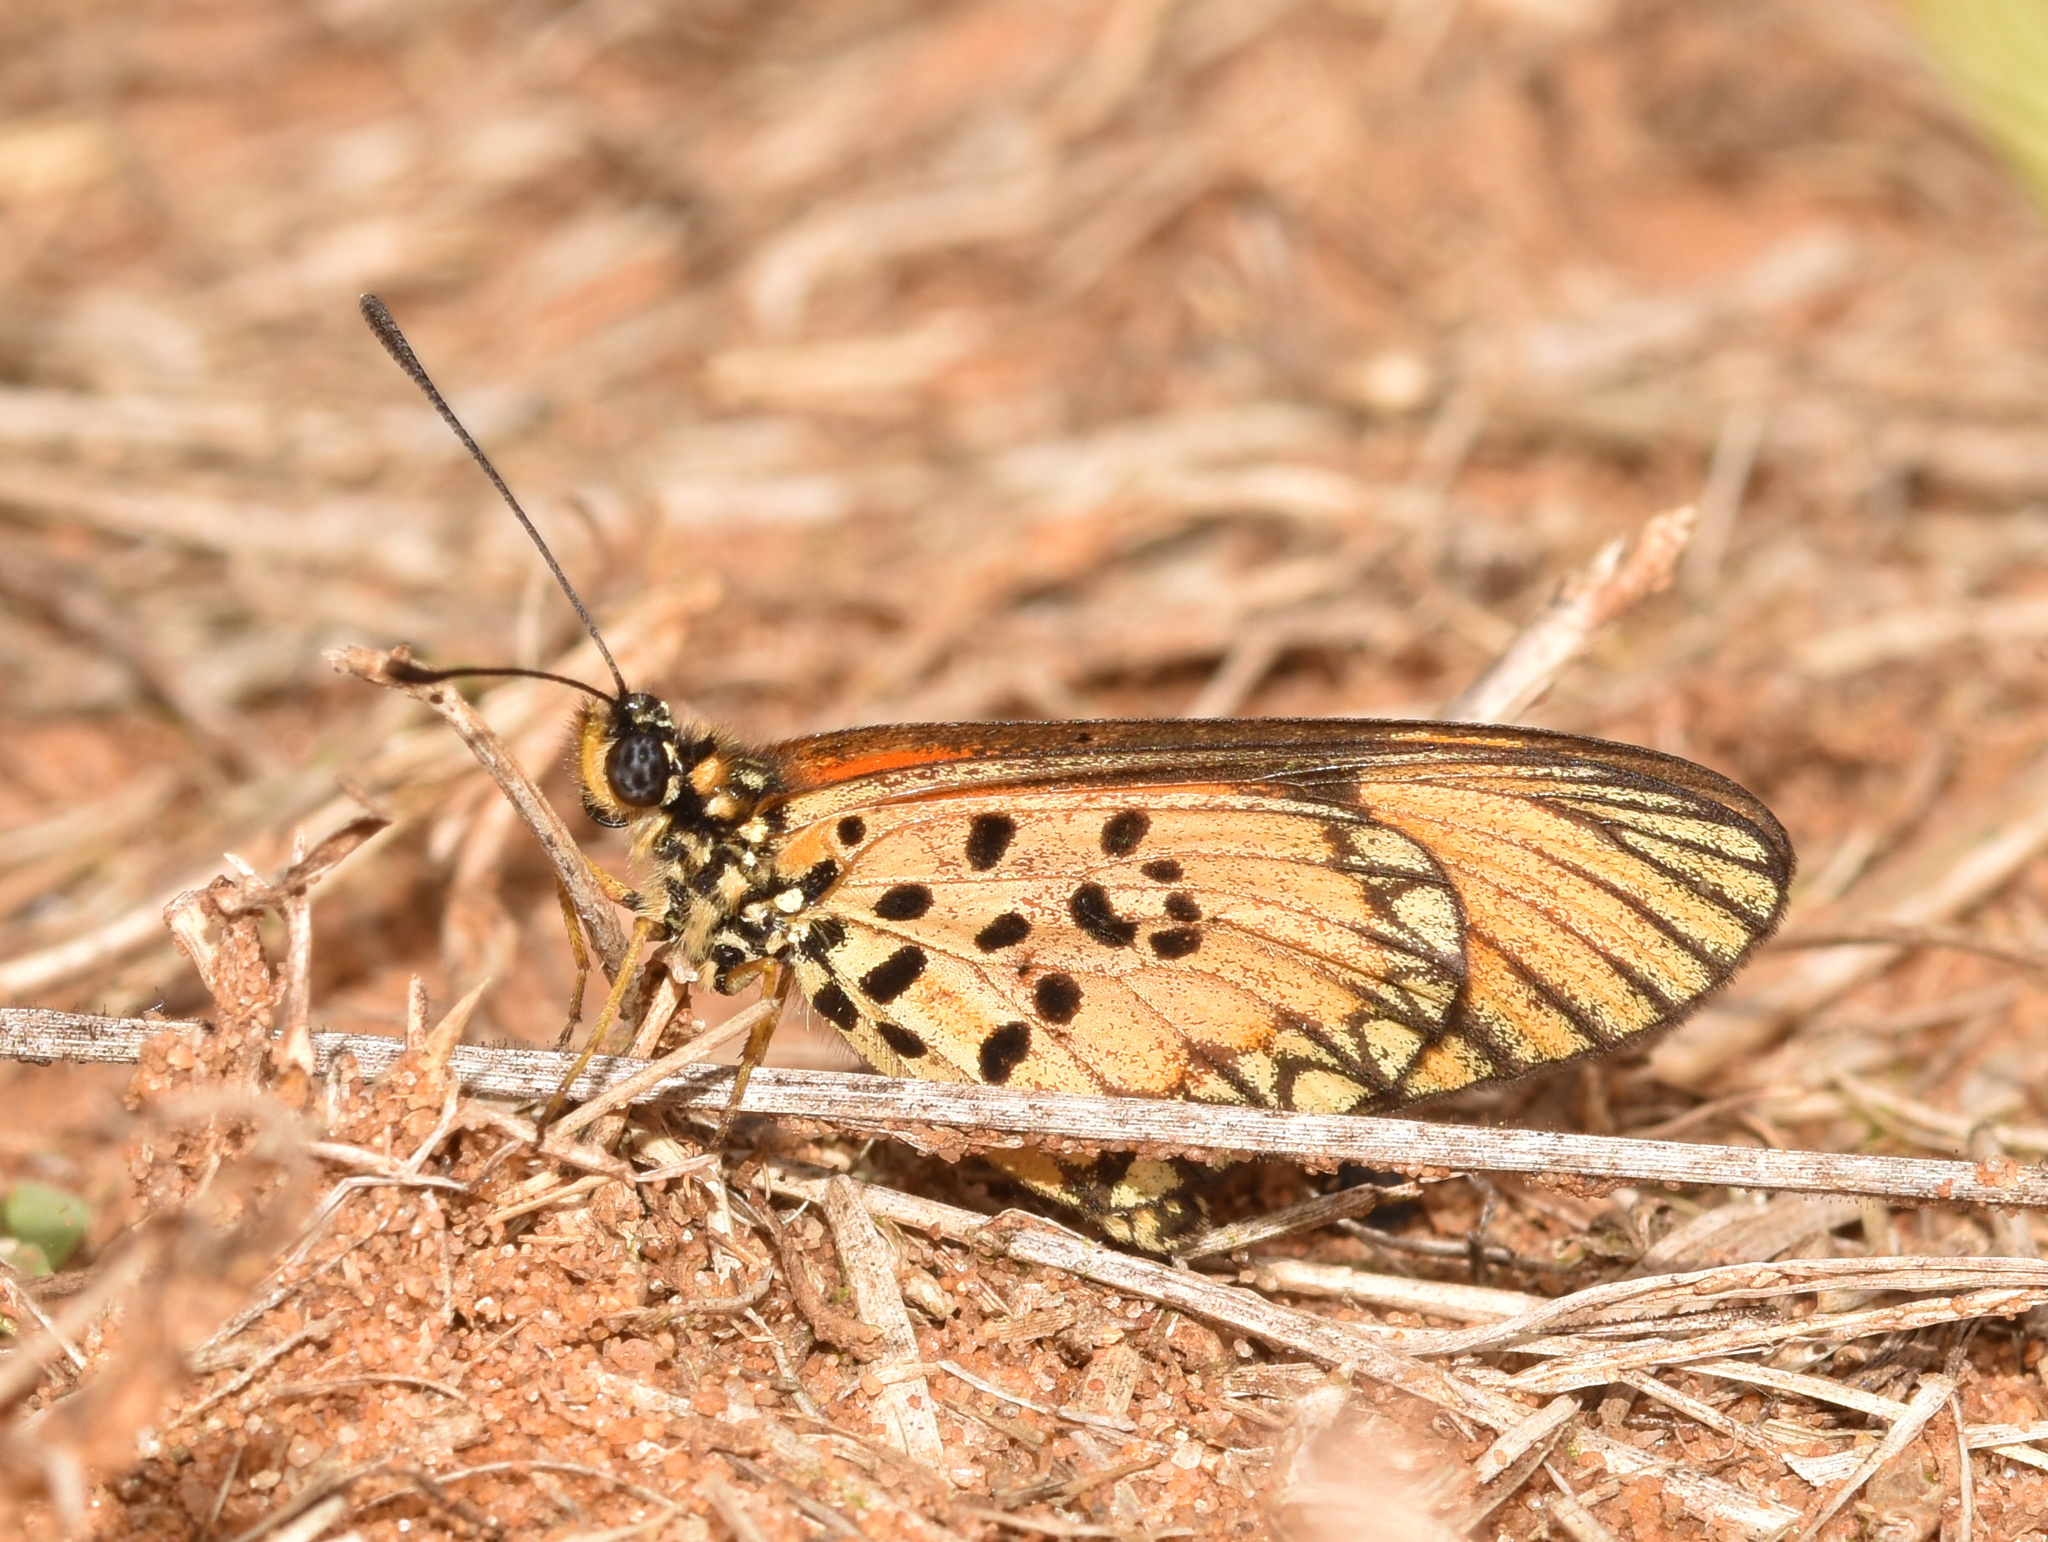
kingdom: Animalia
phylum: Arthropoda
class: Insecta
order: Lepidoptera
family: Nymphalidae
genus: Acraea
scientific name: Acraea Telchinia serena
